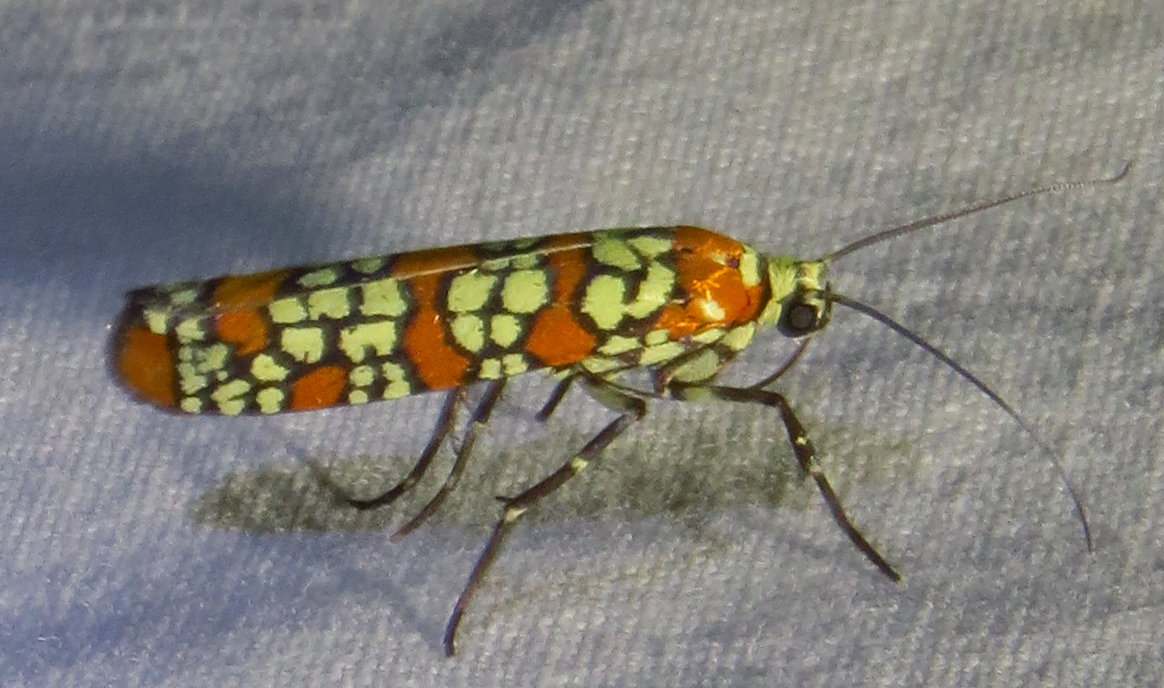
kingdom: Animalia
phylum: Arthropoda
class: Insecta
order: Lepidoptera
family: Attevidae
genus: Atteva
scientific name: Atteva punctella
